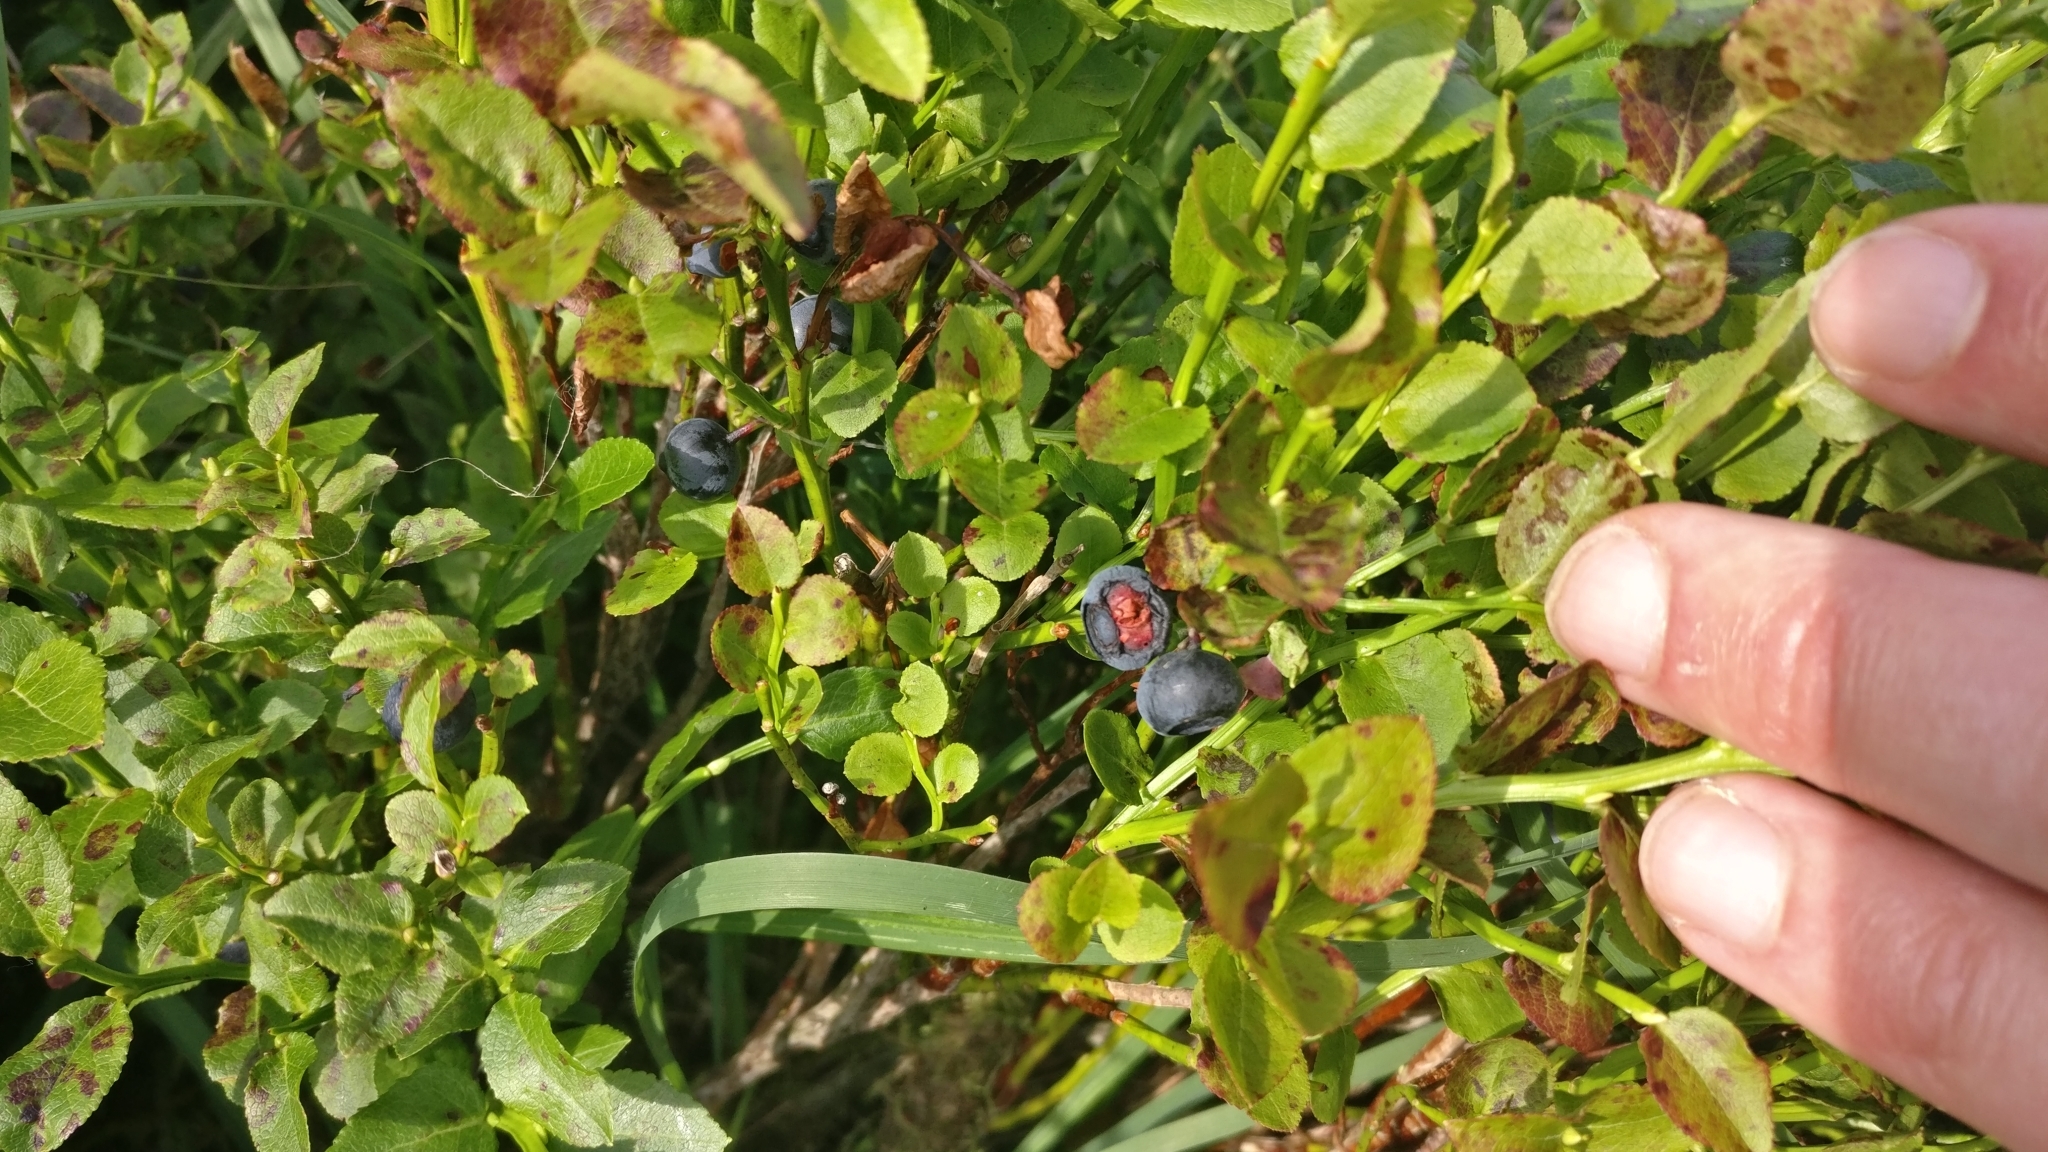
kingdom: Plantae
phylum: Tracheophyta
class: Magnoliopsida
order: Ericales
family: Ericaceae
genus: Vaccinium
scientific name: Vaccinium myrtillus
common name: Bilberry
